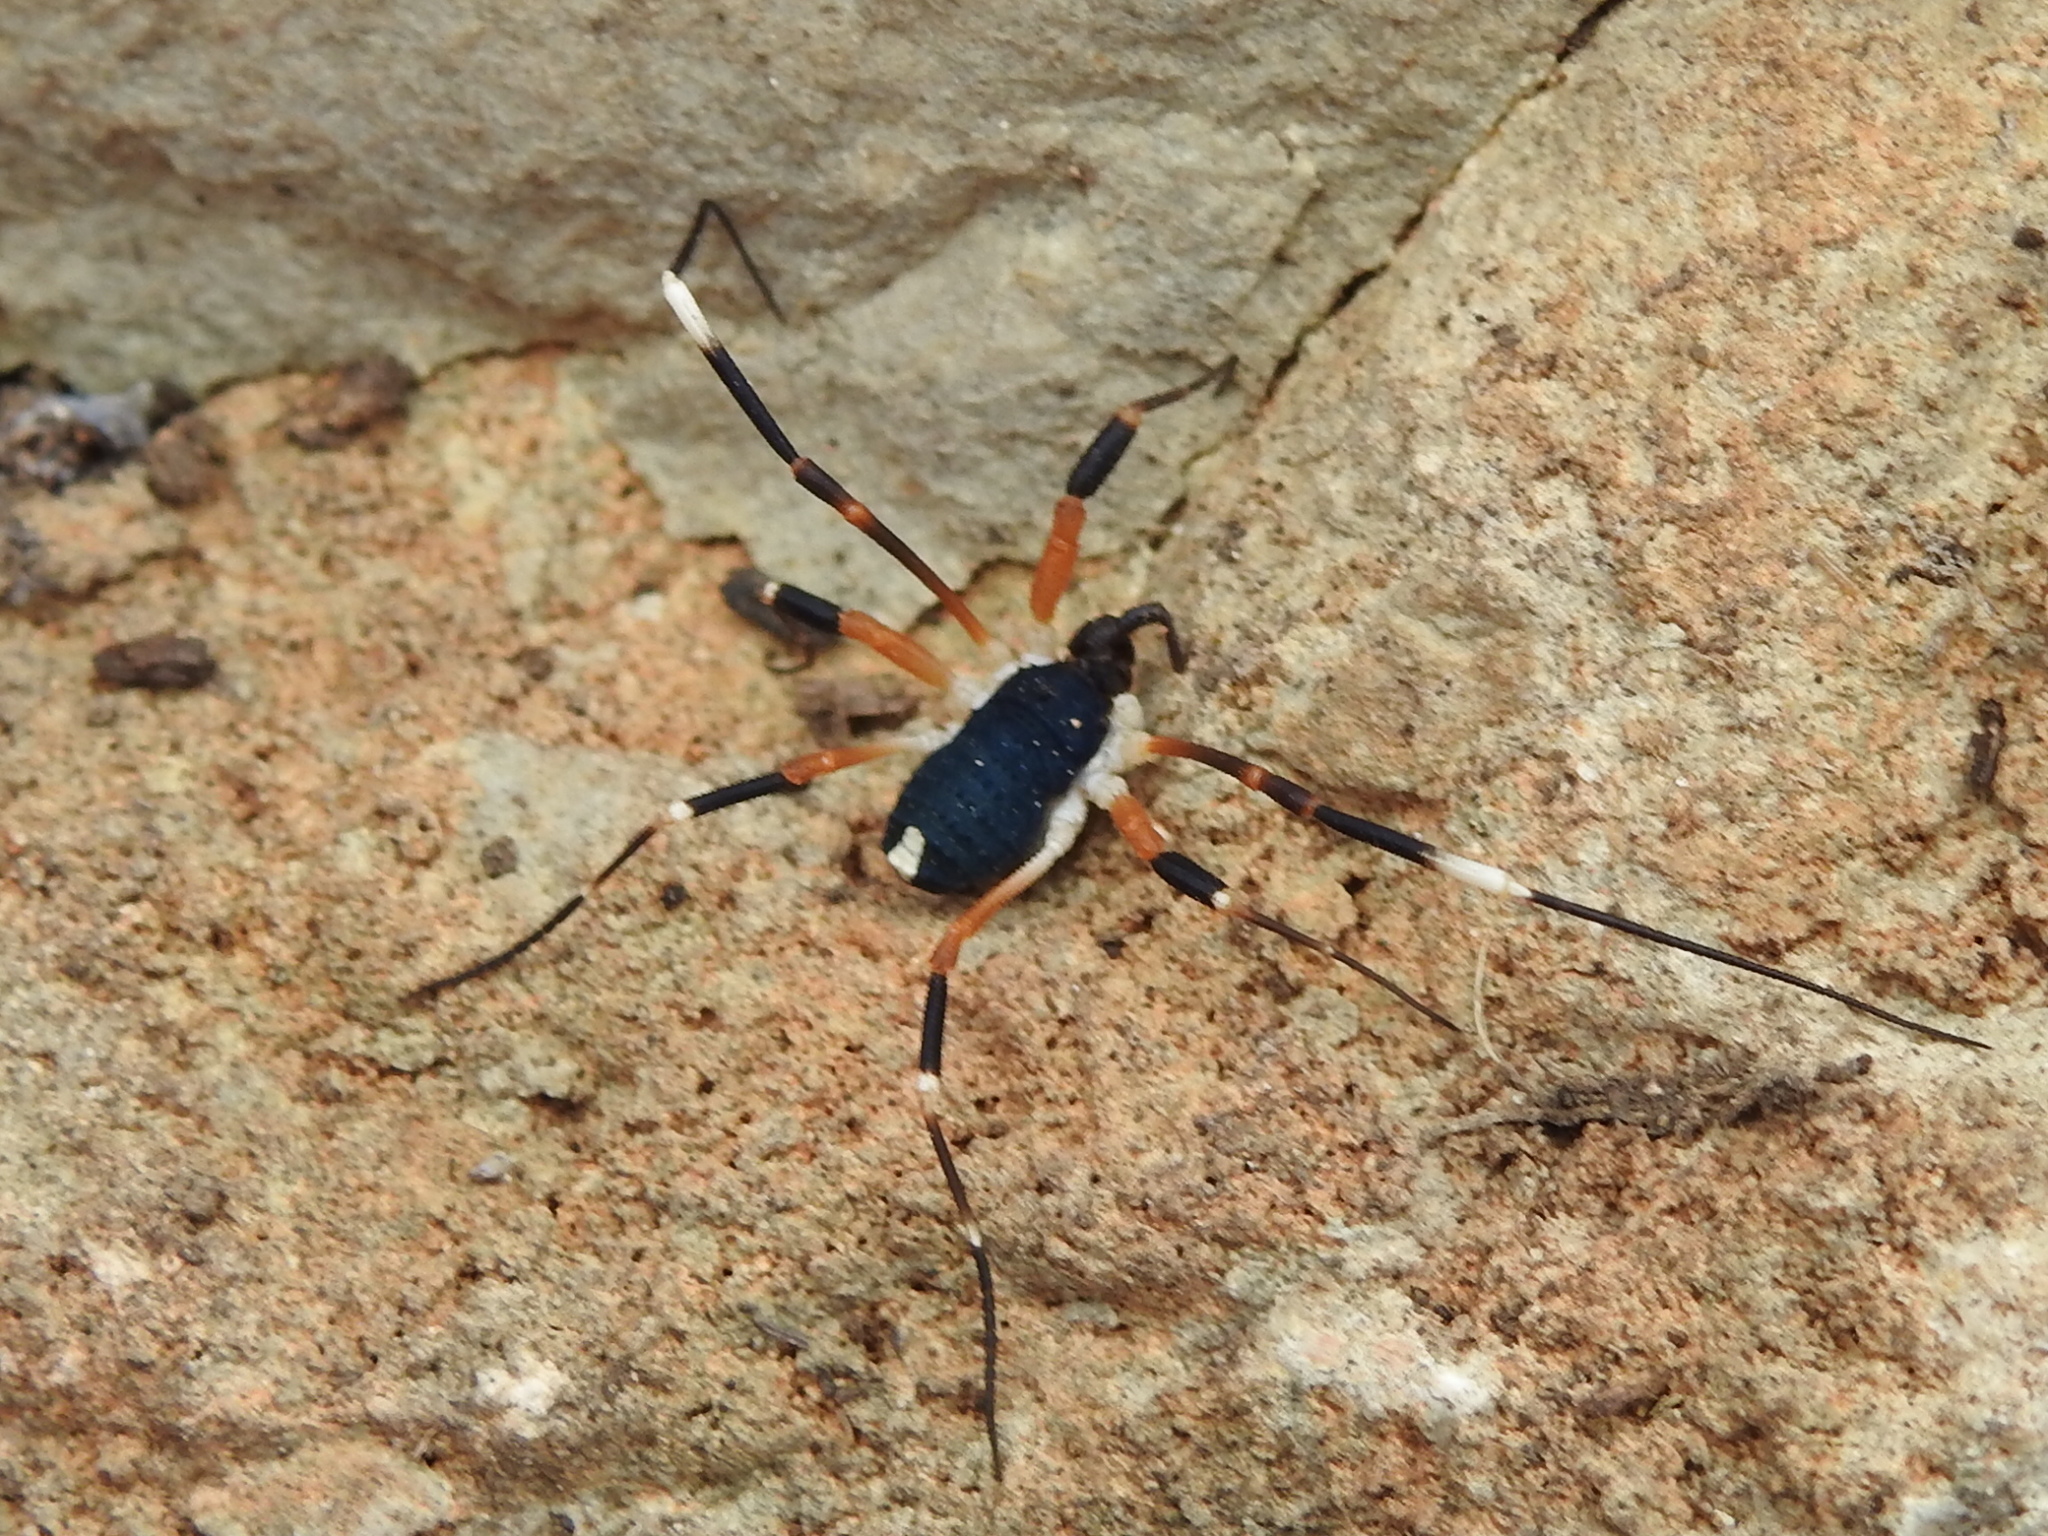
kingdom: Animalia
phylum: Arthropoda
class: Arachnida
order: Opiliones
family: Globipedidae
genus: Dalquestia
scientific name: Dalquestia formosa
